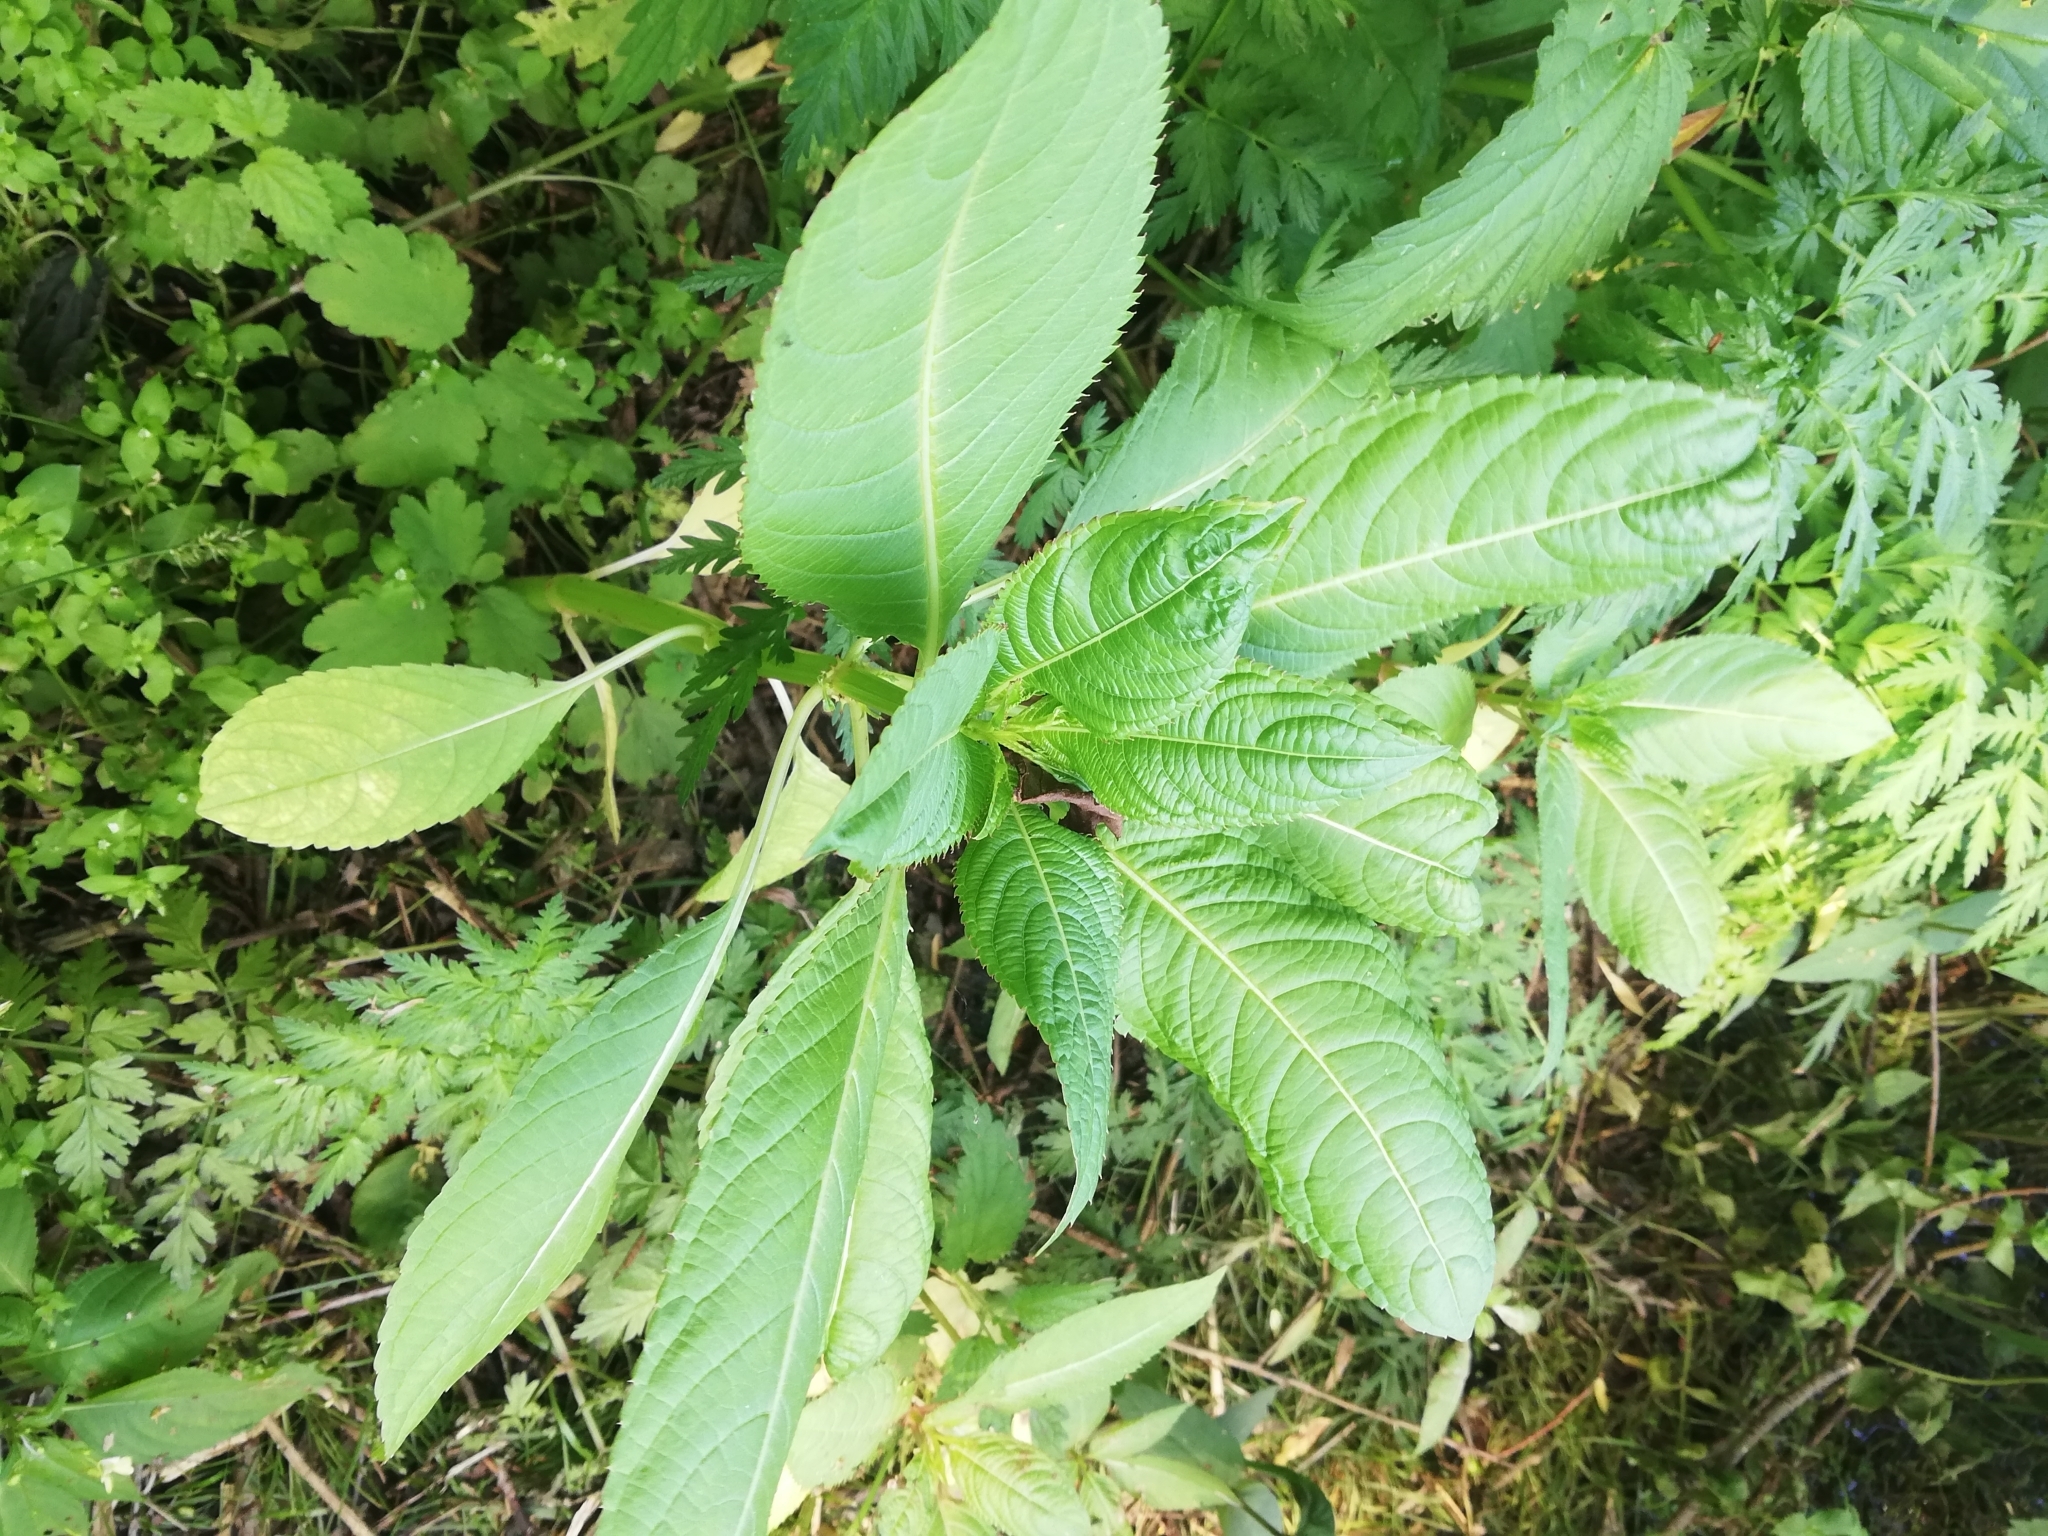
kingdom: Plantae
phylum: Tracheophyta
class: Magnoliopsida
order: Ericales
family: Balsaminaceae
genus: Impatiens
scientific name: Impatiens glandulifera
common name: Himalayan balsam
